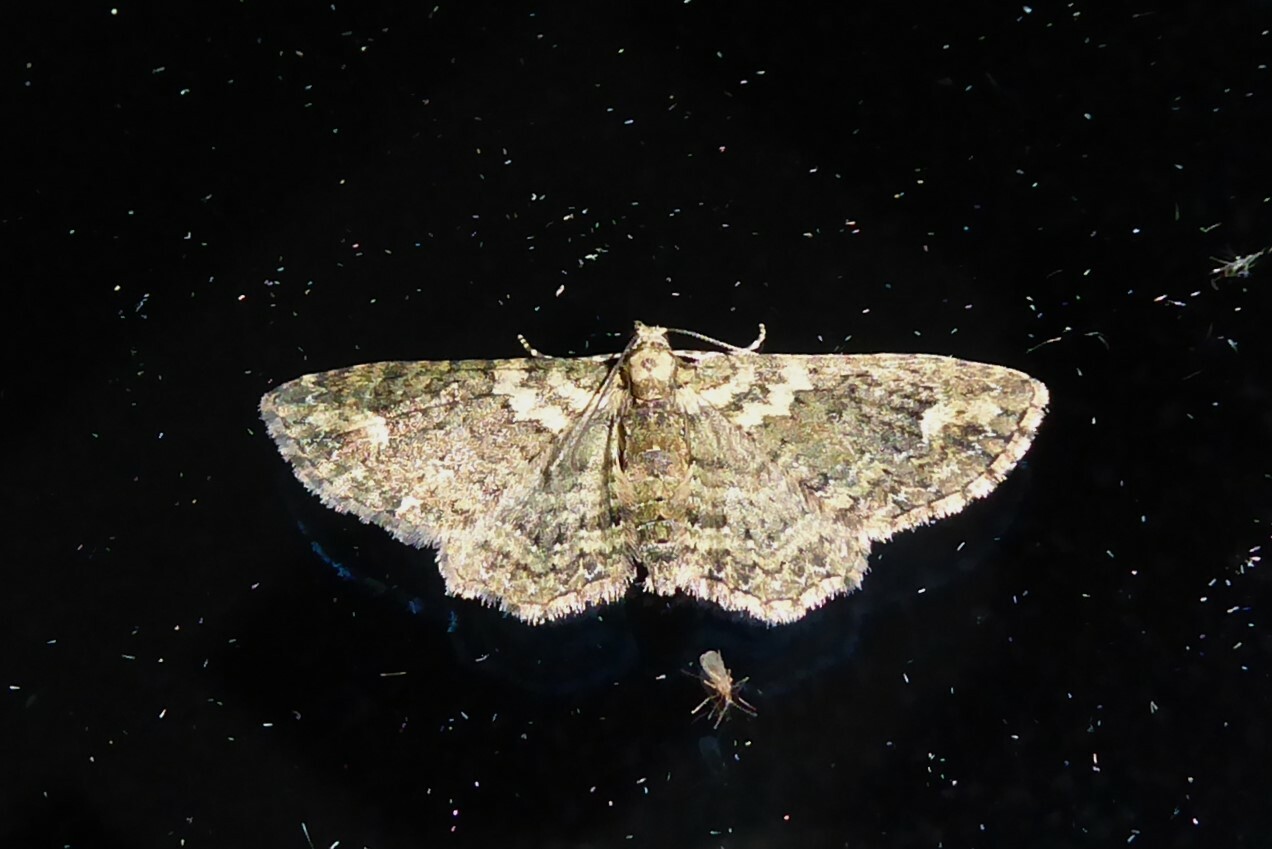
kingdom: Animalia
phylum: Arthropoda
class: Insecta
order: Lepidoptera
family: Geometridae
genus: Pasiphilodes
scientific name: Pasiphilodes testulata
